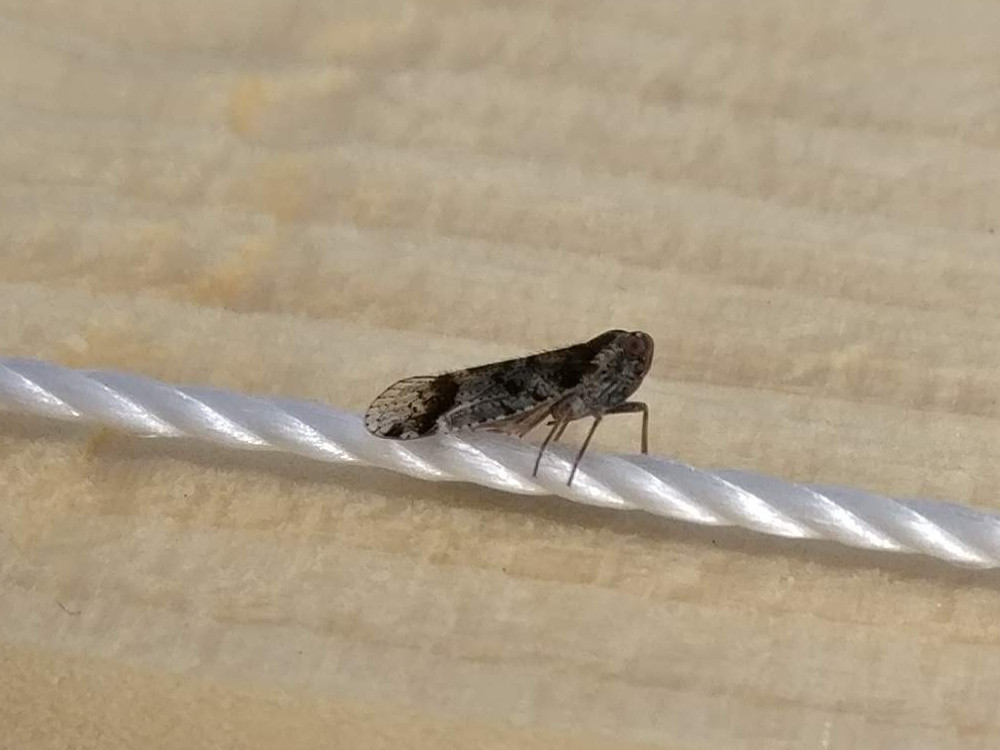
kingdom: Animalia
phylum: Arthropoda
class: Insecta
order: Hemiptera
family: Cixiidae
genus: Cixius
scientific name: Cixius cunicularius
